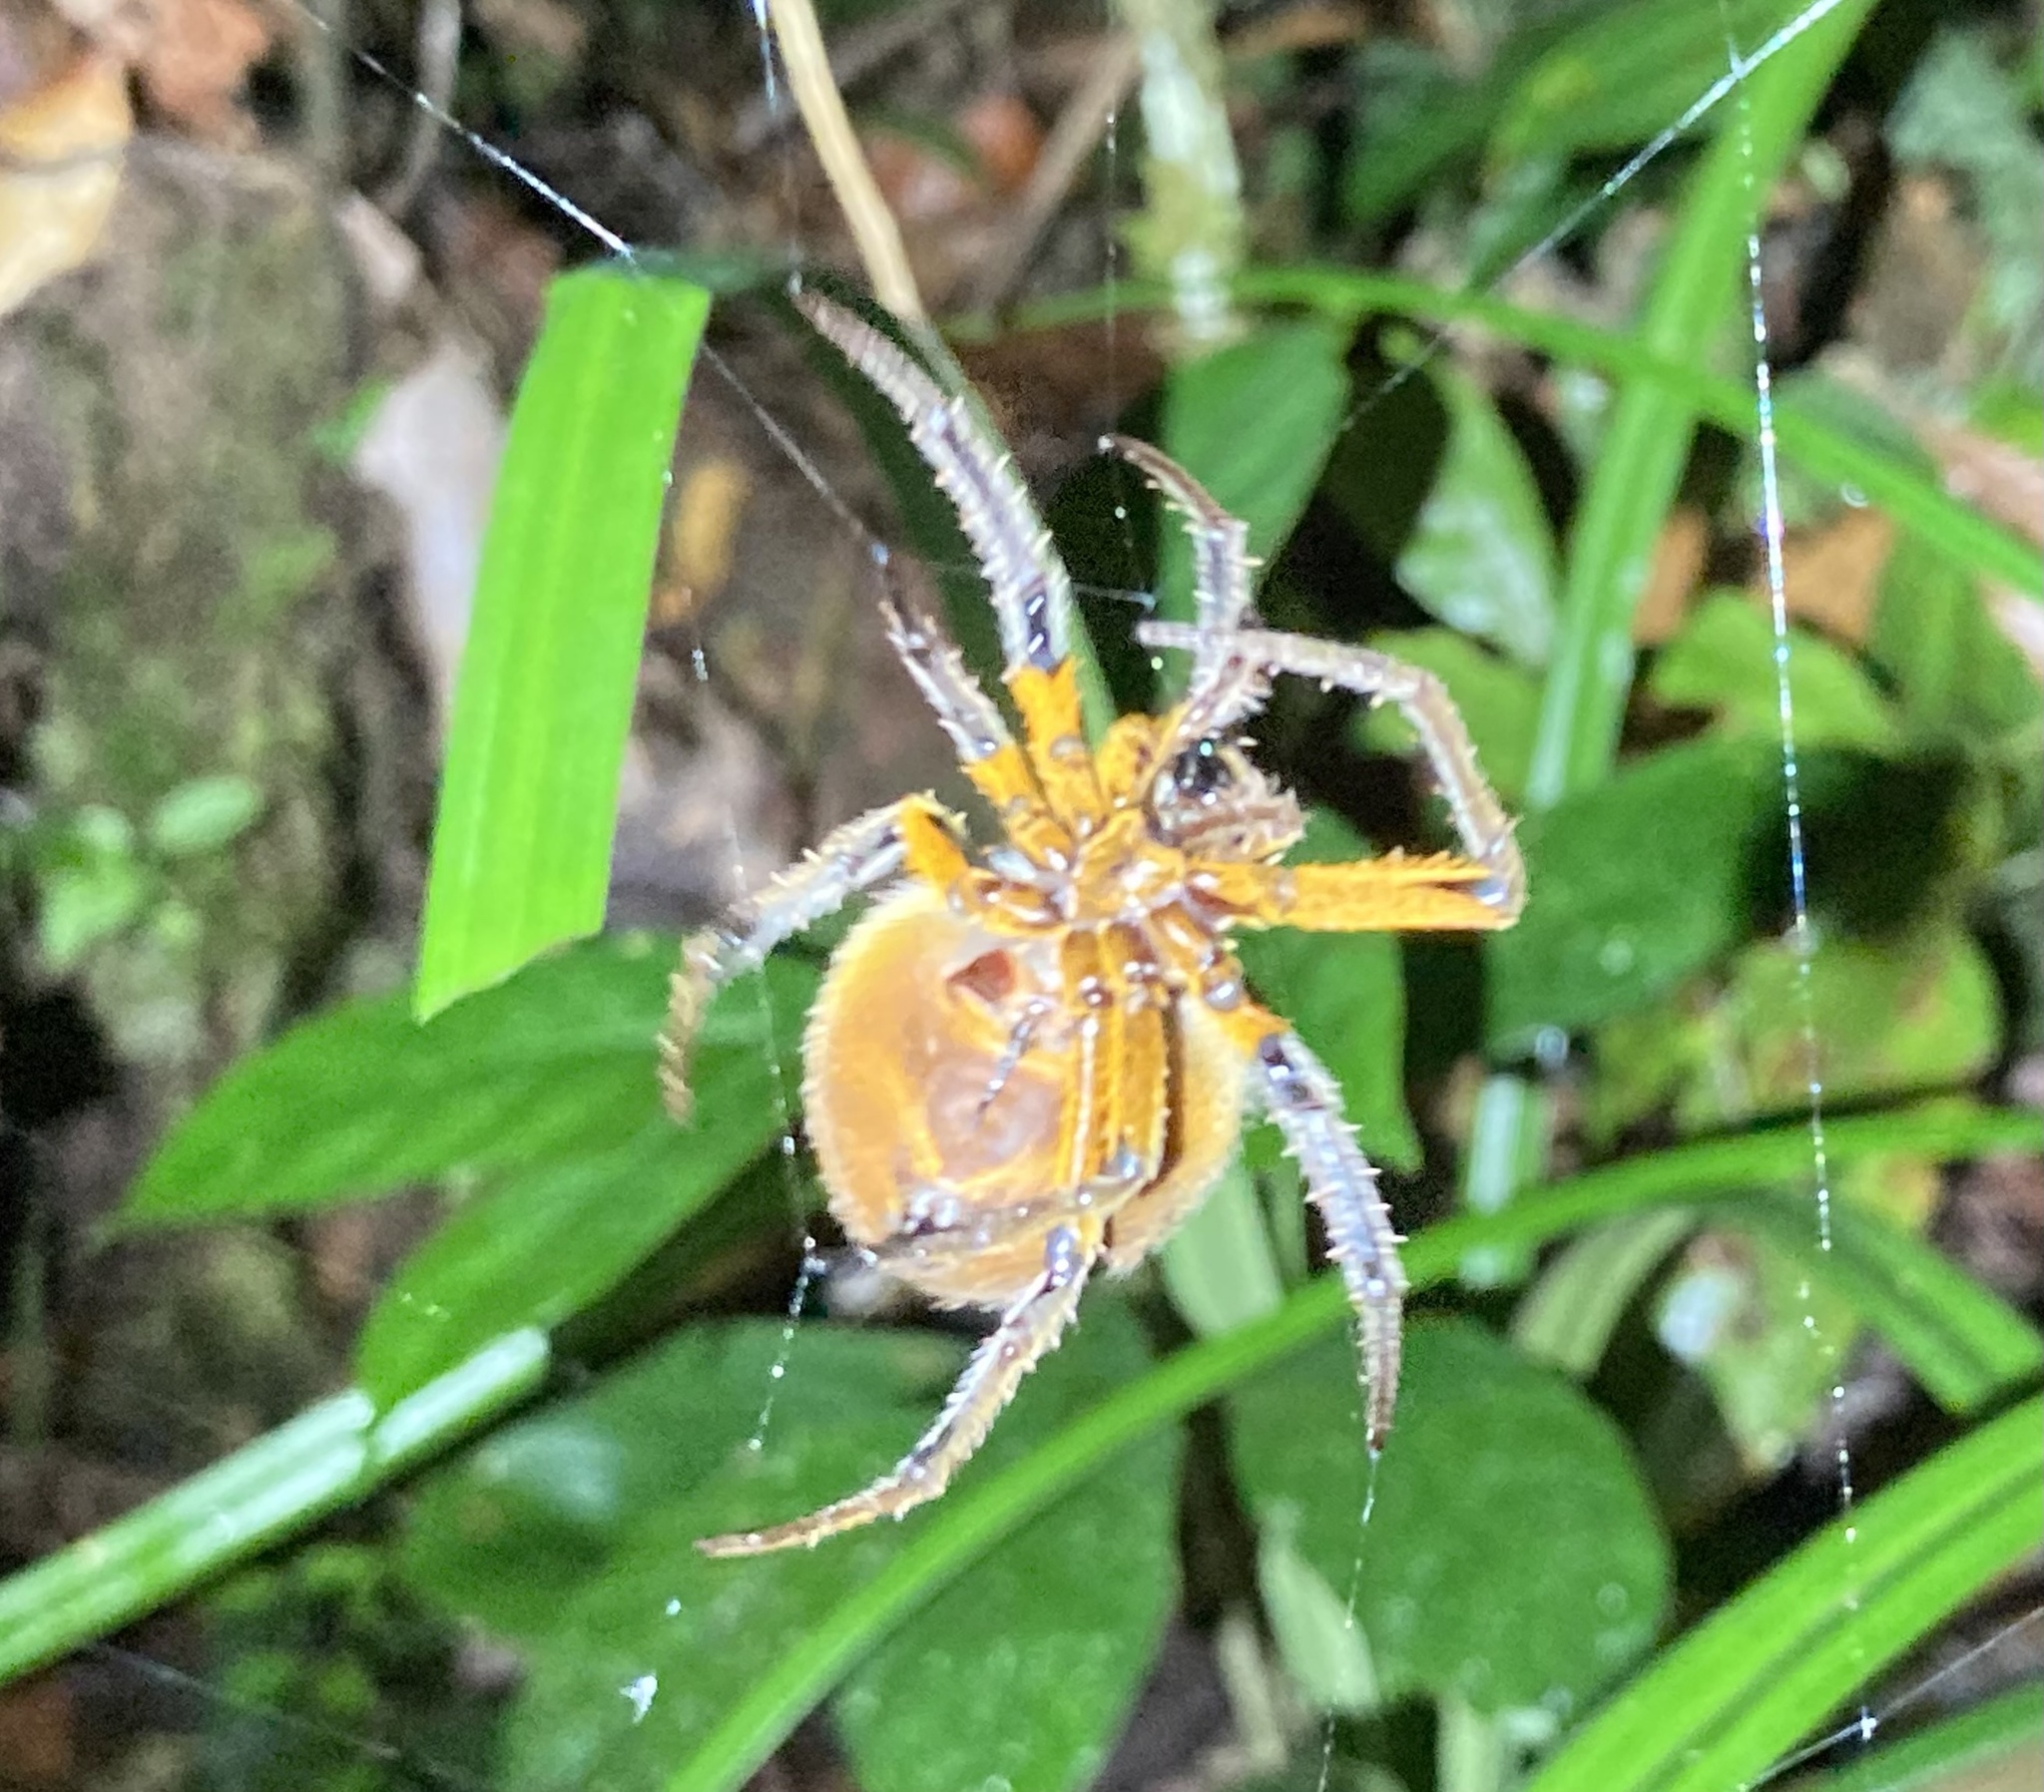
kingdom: Animalia
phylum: Arthropoda
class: Arachnida
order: Araneae
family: Araneidae
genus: Eriophora
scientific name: Eriophora fuliginea
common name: Orb weavers
